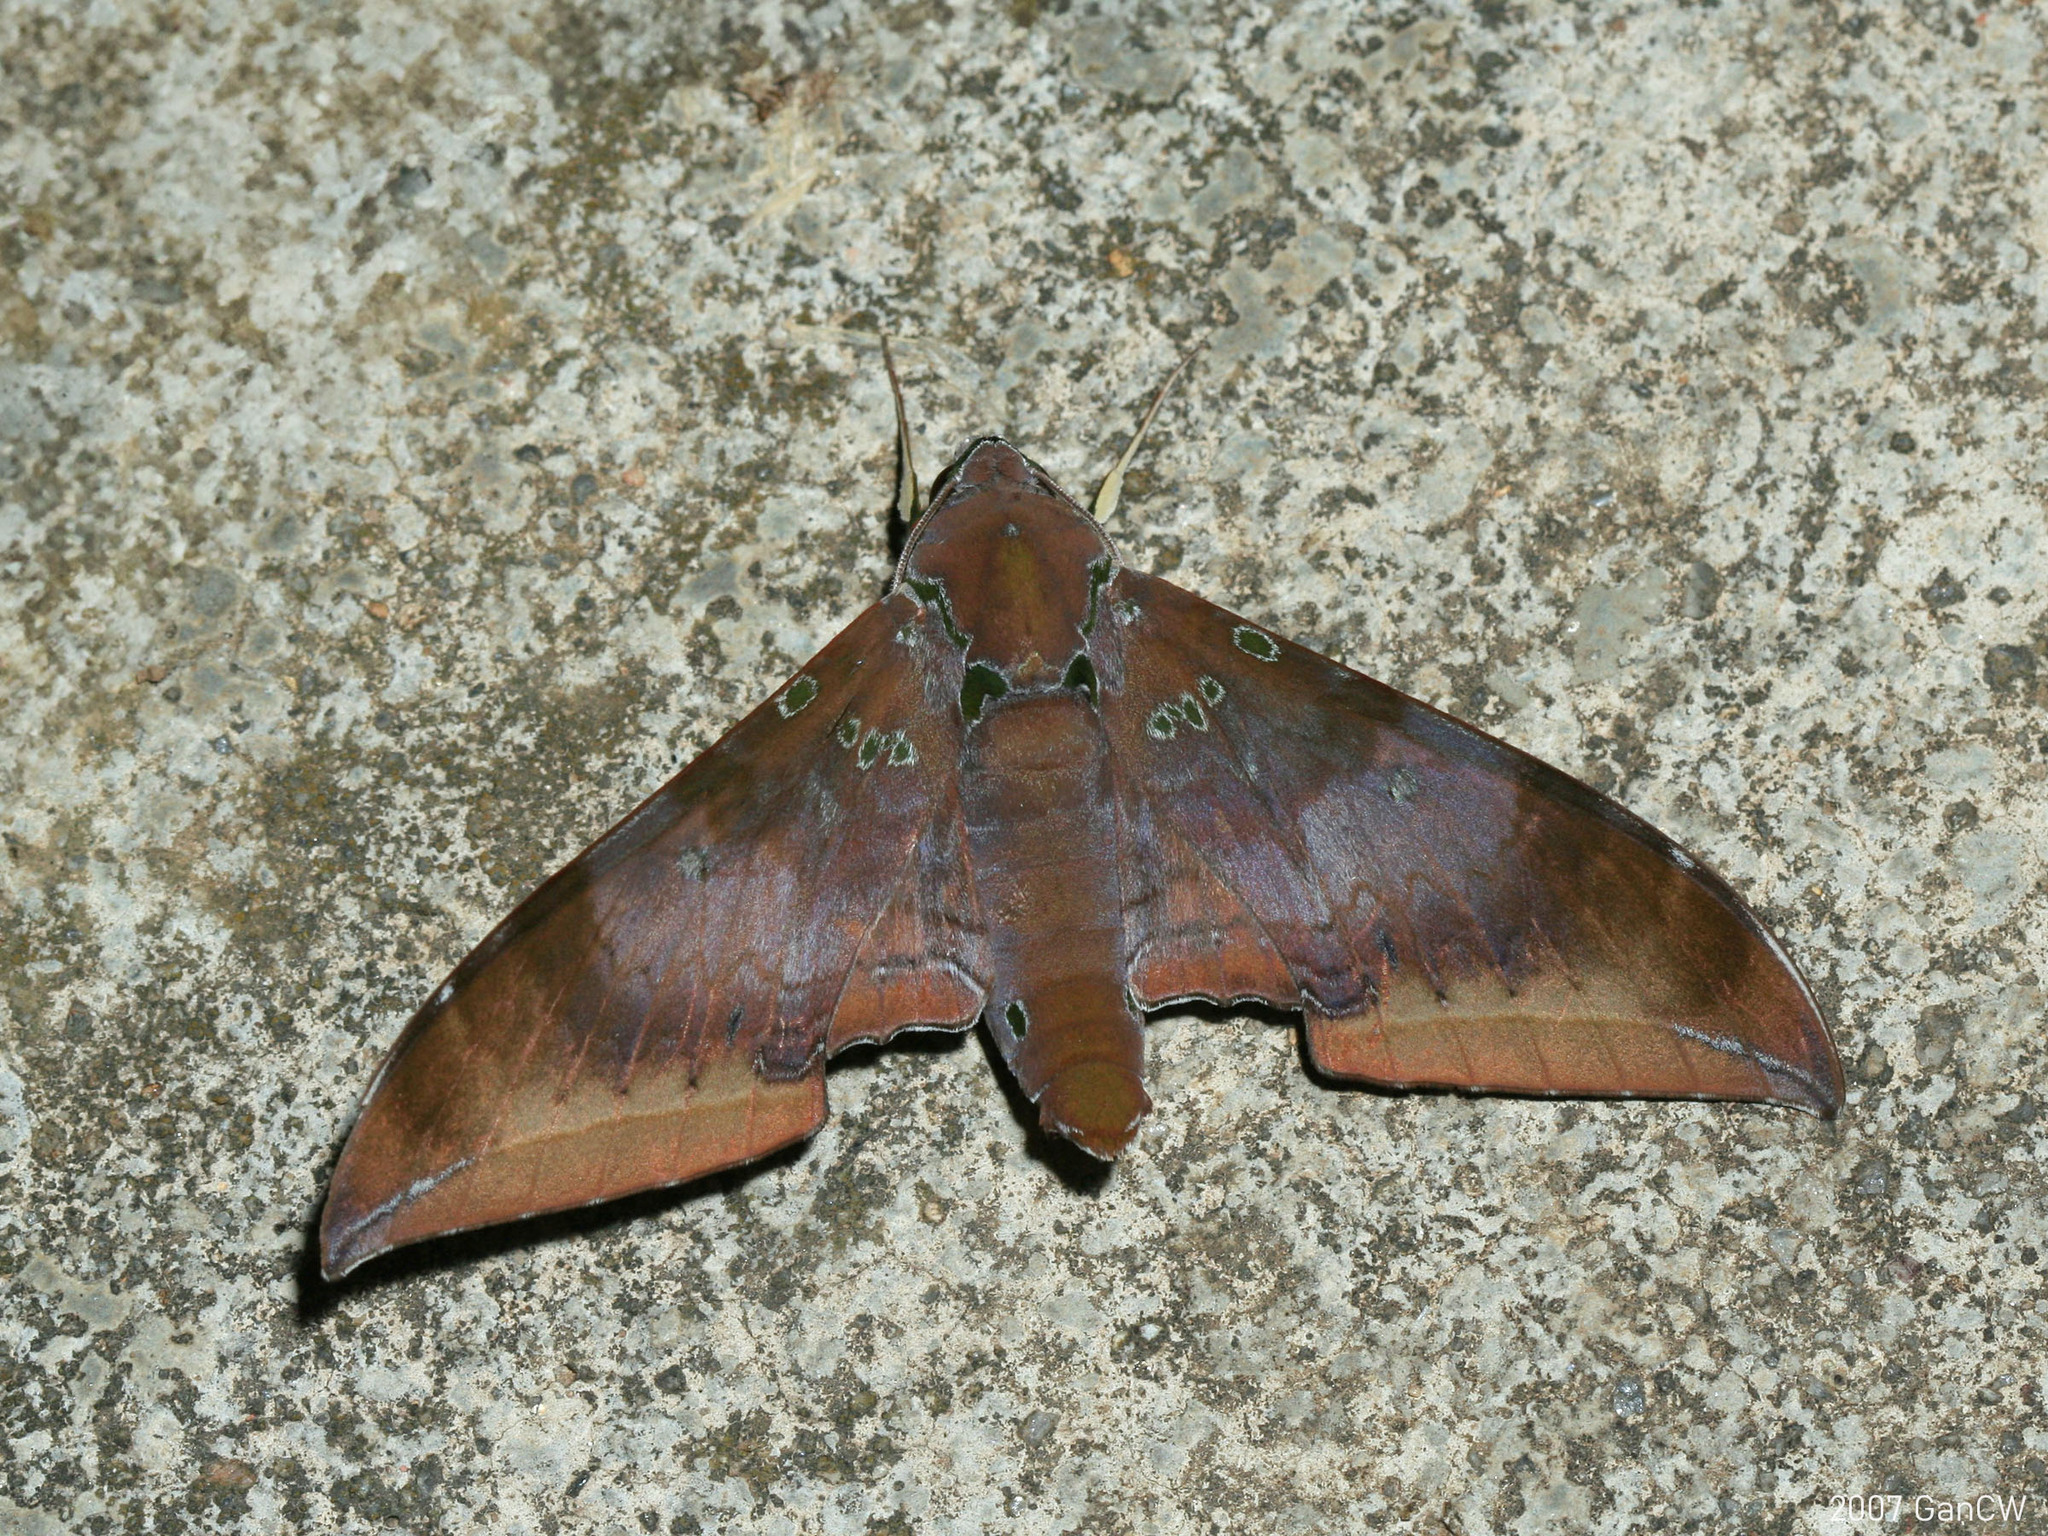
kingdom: Animalia
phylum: Arthropoda
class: Insecta
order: Lepidoptera
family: Sphingidae
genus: Ambulyx
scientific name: Ambulyx moorei
